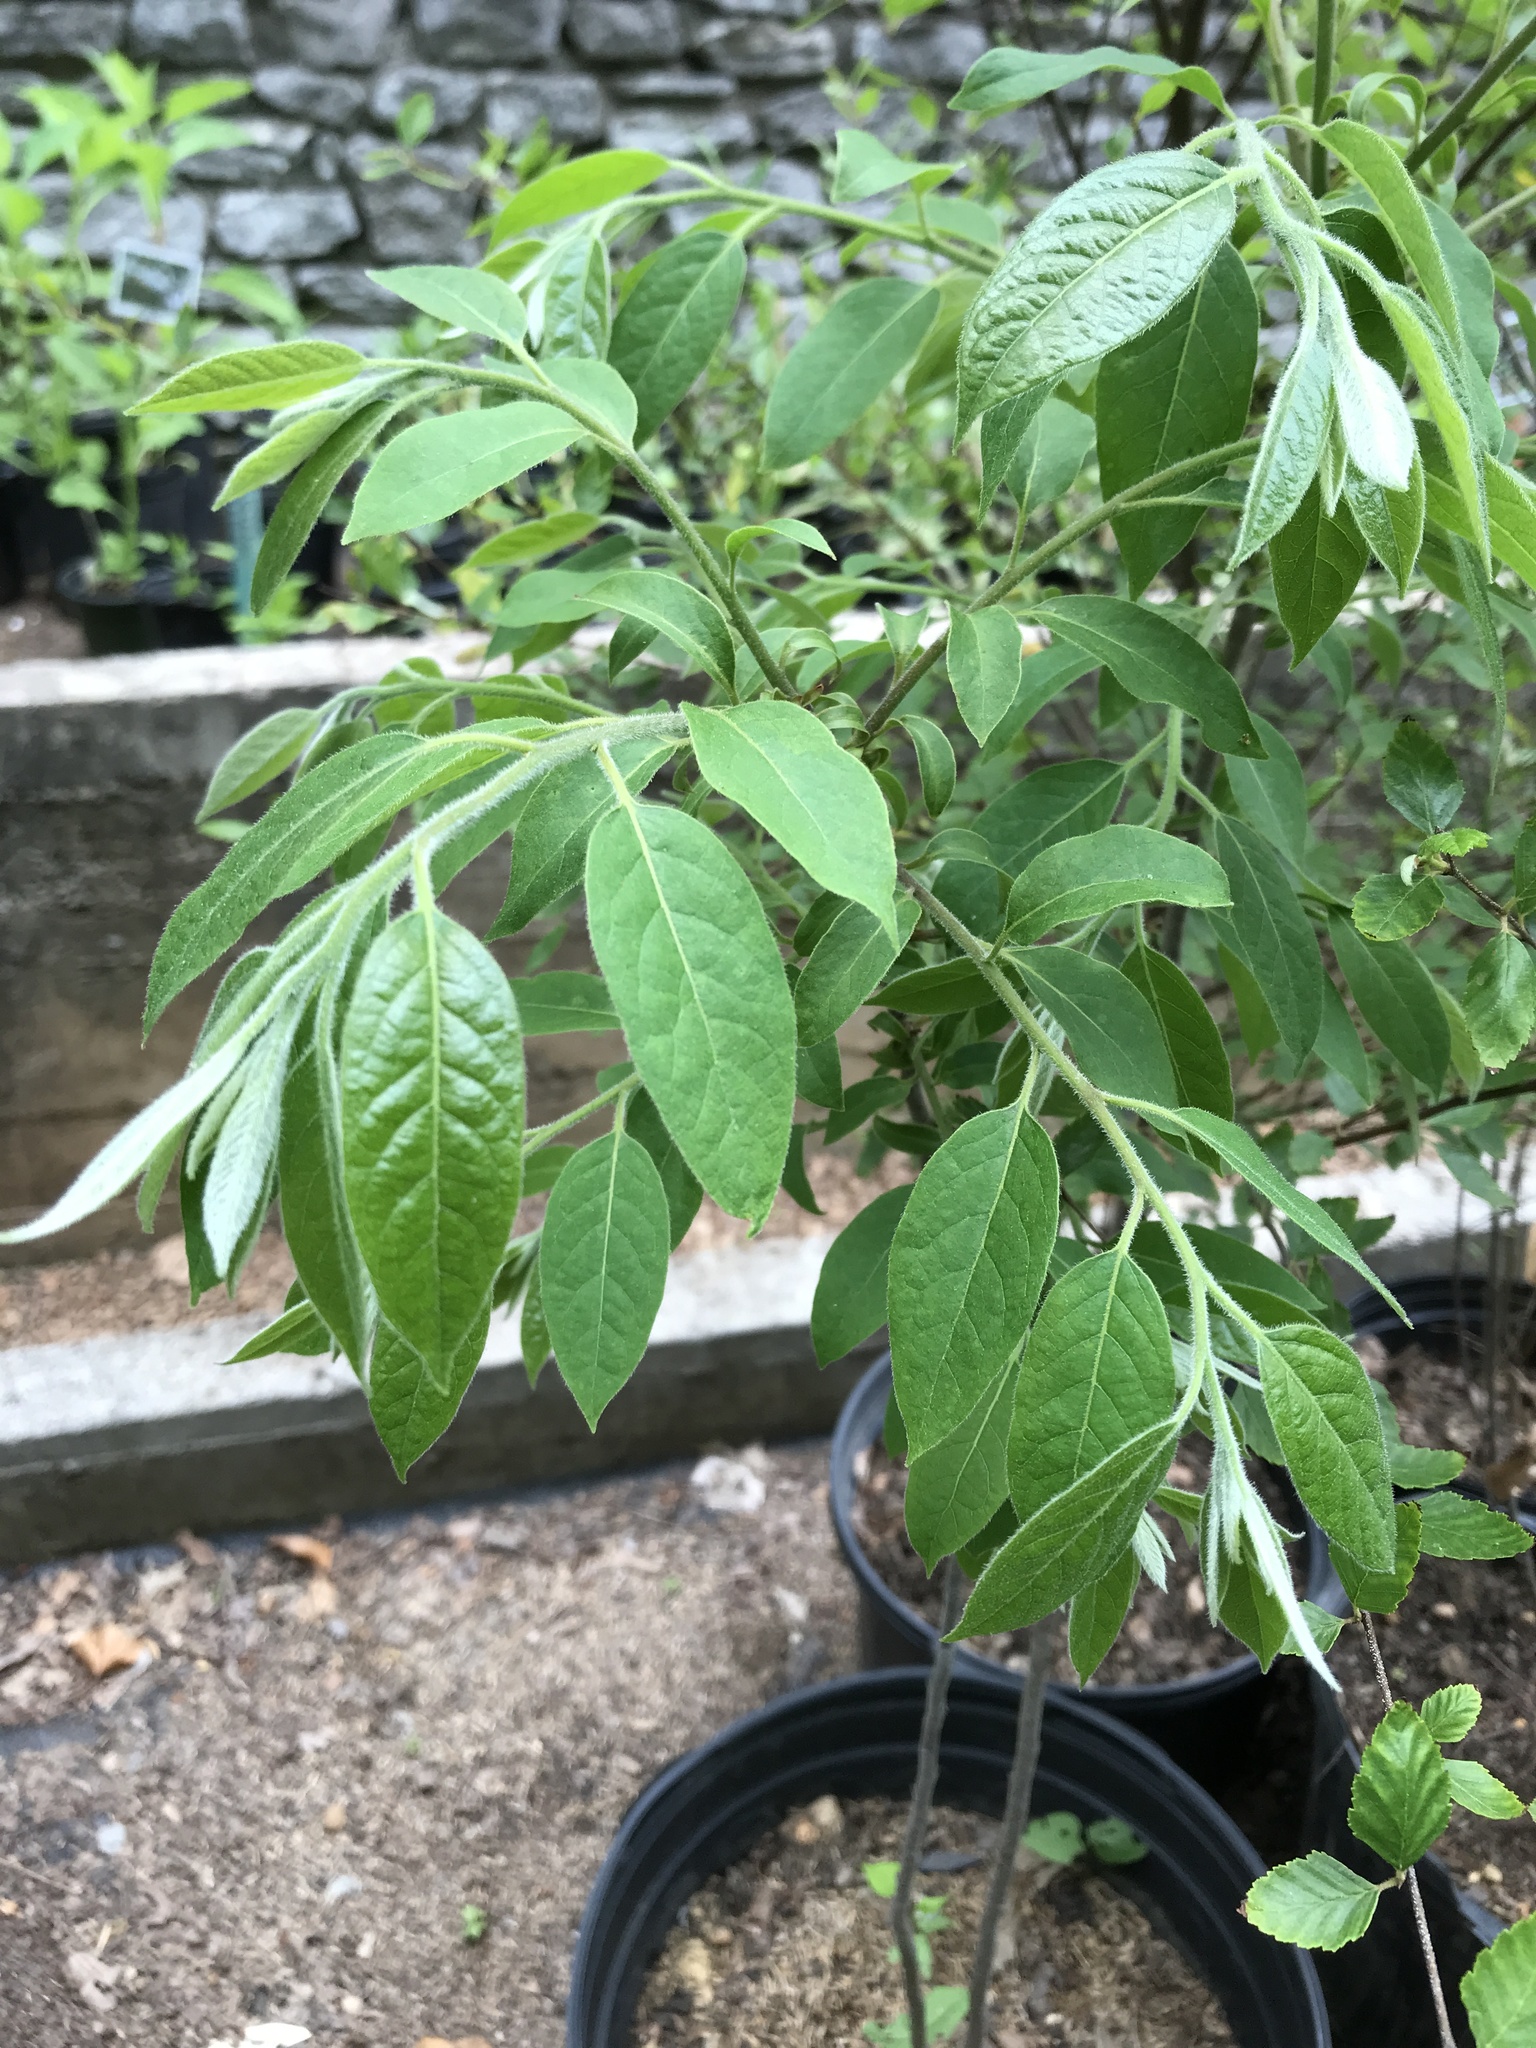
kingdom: Plantae
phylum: Tracheophyta
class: Magnoliopsida
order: Ericales
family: Ebenaceae
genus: Diospyros
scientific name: Diospyros virginiana
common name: Persimmon
